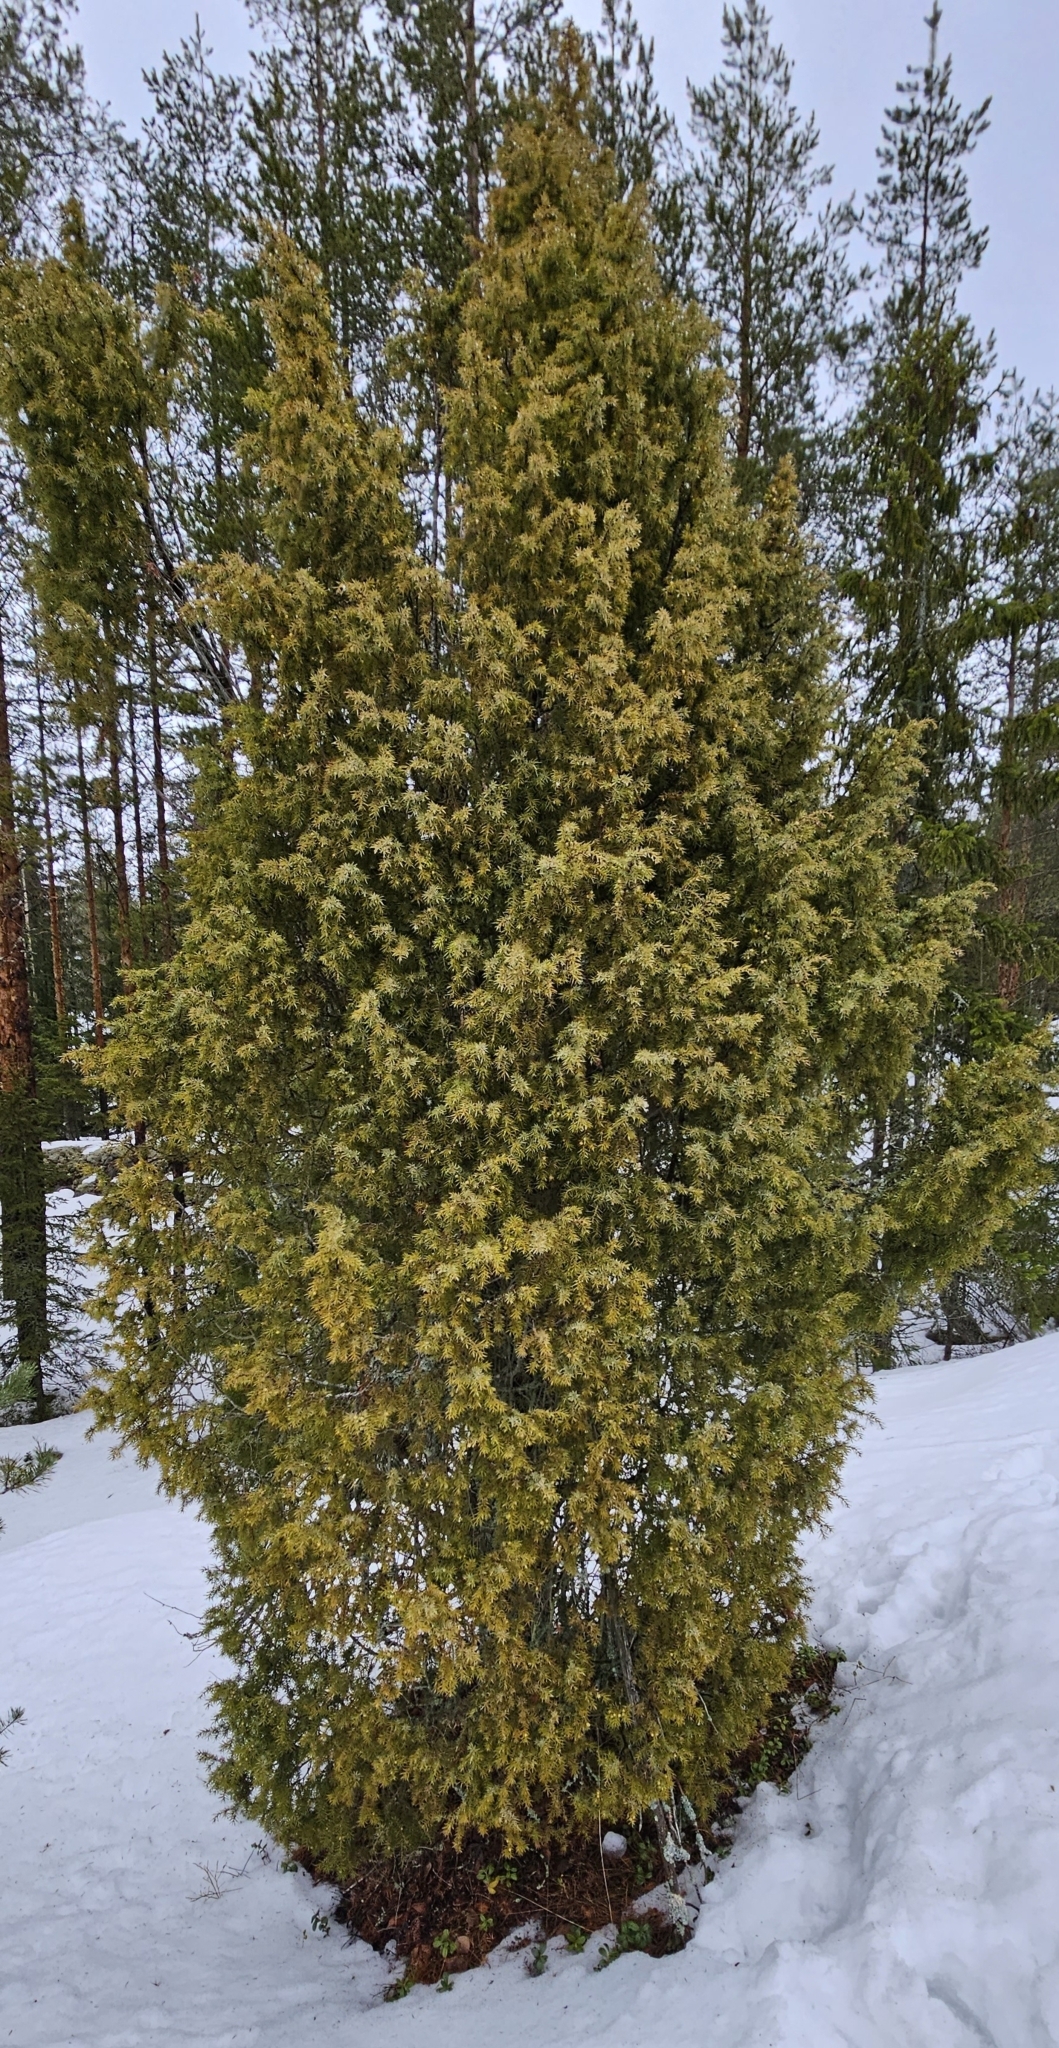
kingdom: Plantae
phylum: Tracheophyta
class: Pinopsida
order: Pinales
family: Cupressaceae
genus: Juniperus
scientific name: Juniperus communis
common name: Common juniper
